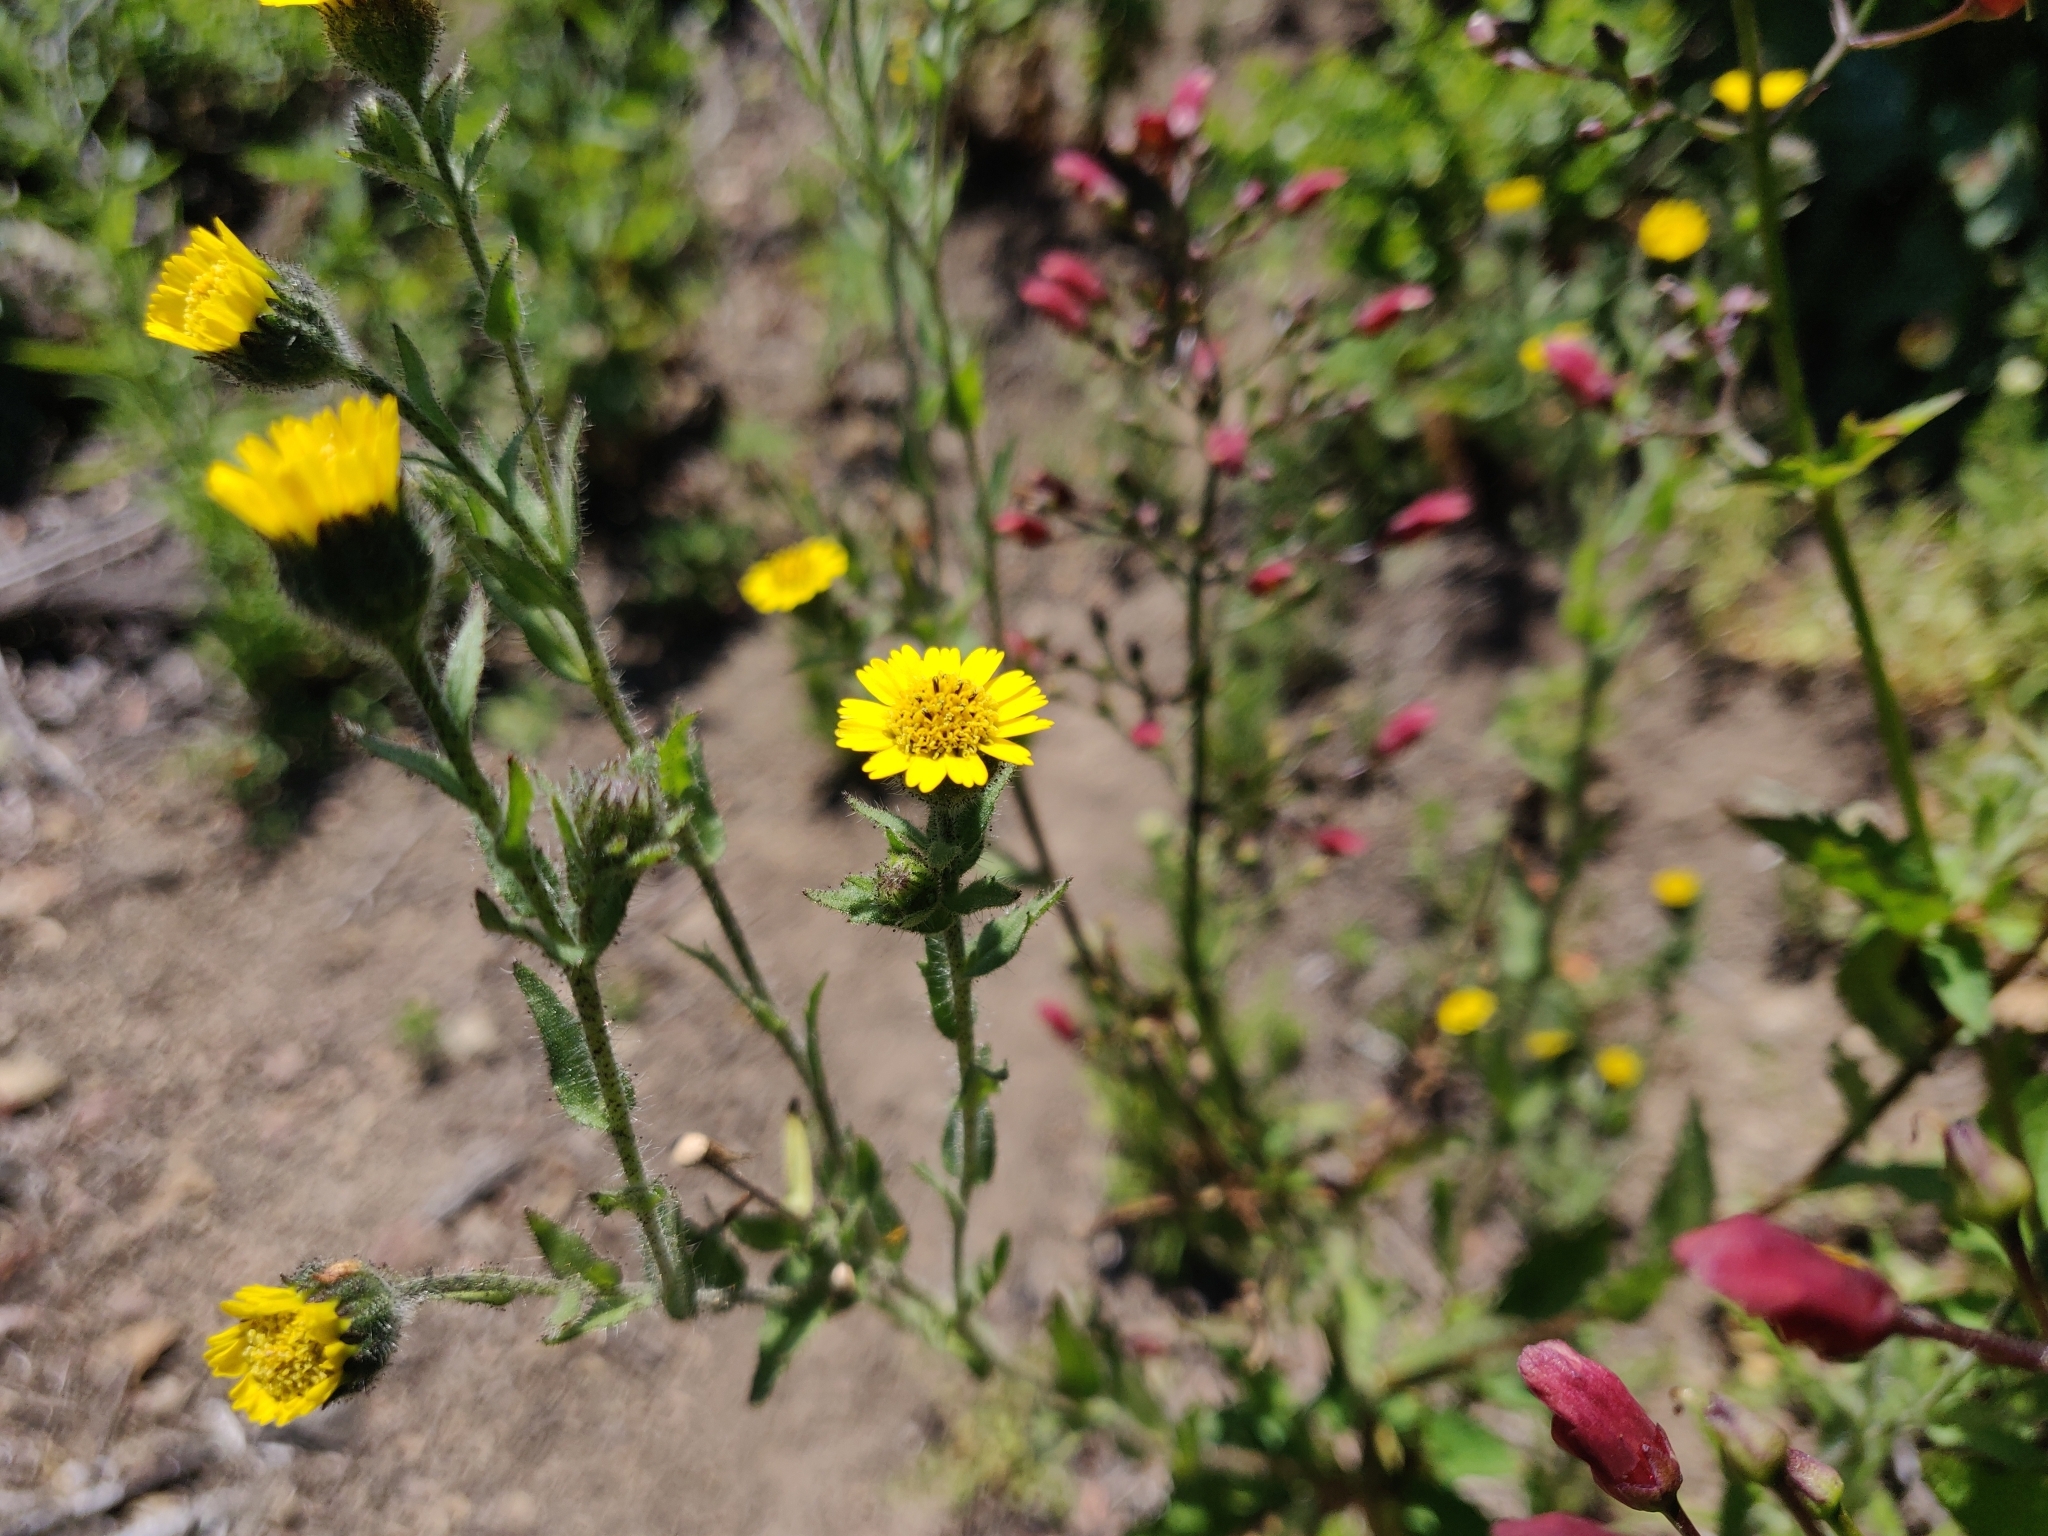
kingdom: Plantae
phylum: Tracheophyta
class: Magnoliopsida
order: Asterales
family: Asteraceae
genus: Layia
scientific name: Layia hieracioides
